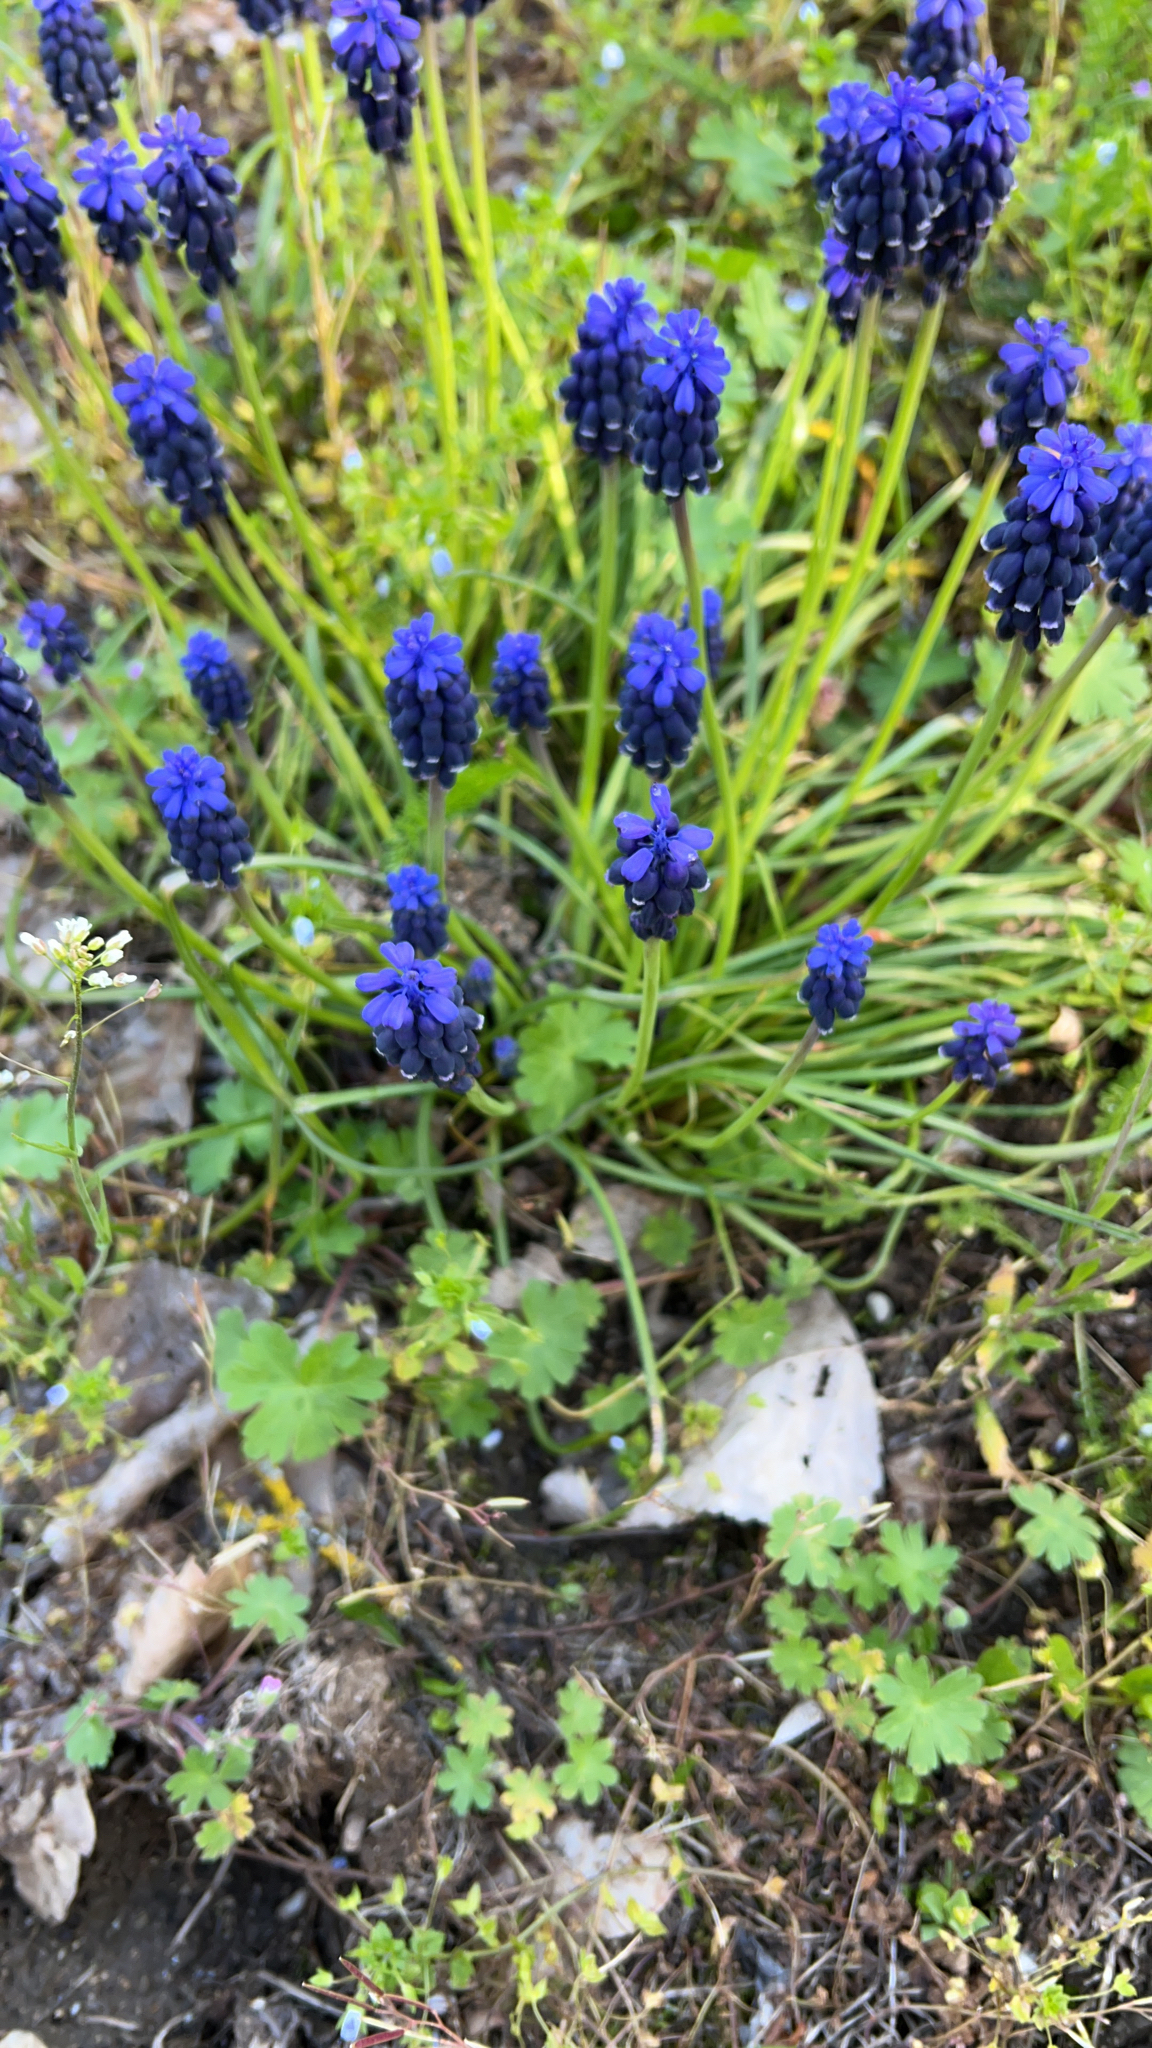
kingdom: Plantae
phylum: Tracheophyta
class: Liliopsida
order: Asparagales
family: Asparagaceae
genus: Muscari
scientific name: Muscari neglectum
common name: Grape-hyacinth
